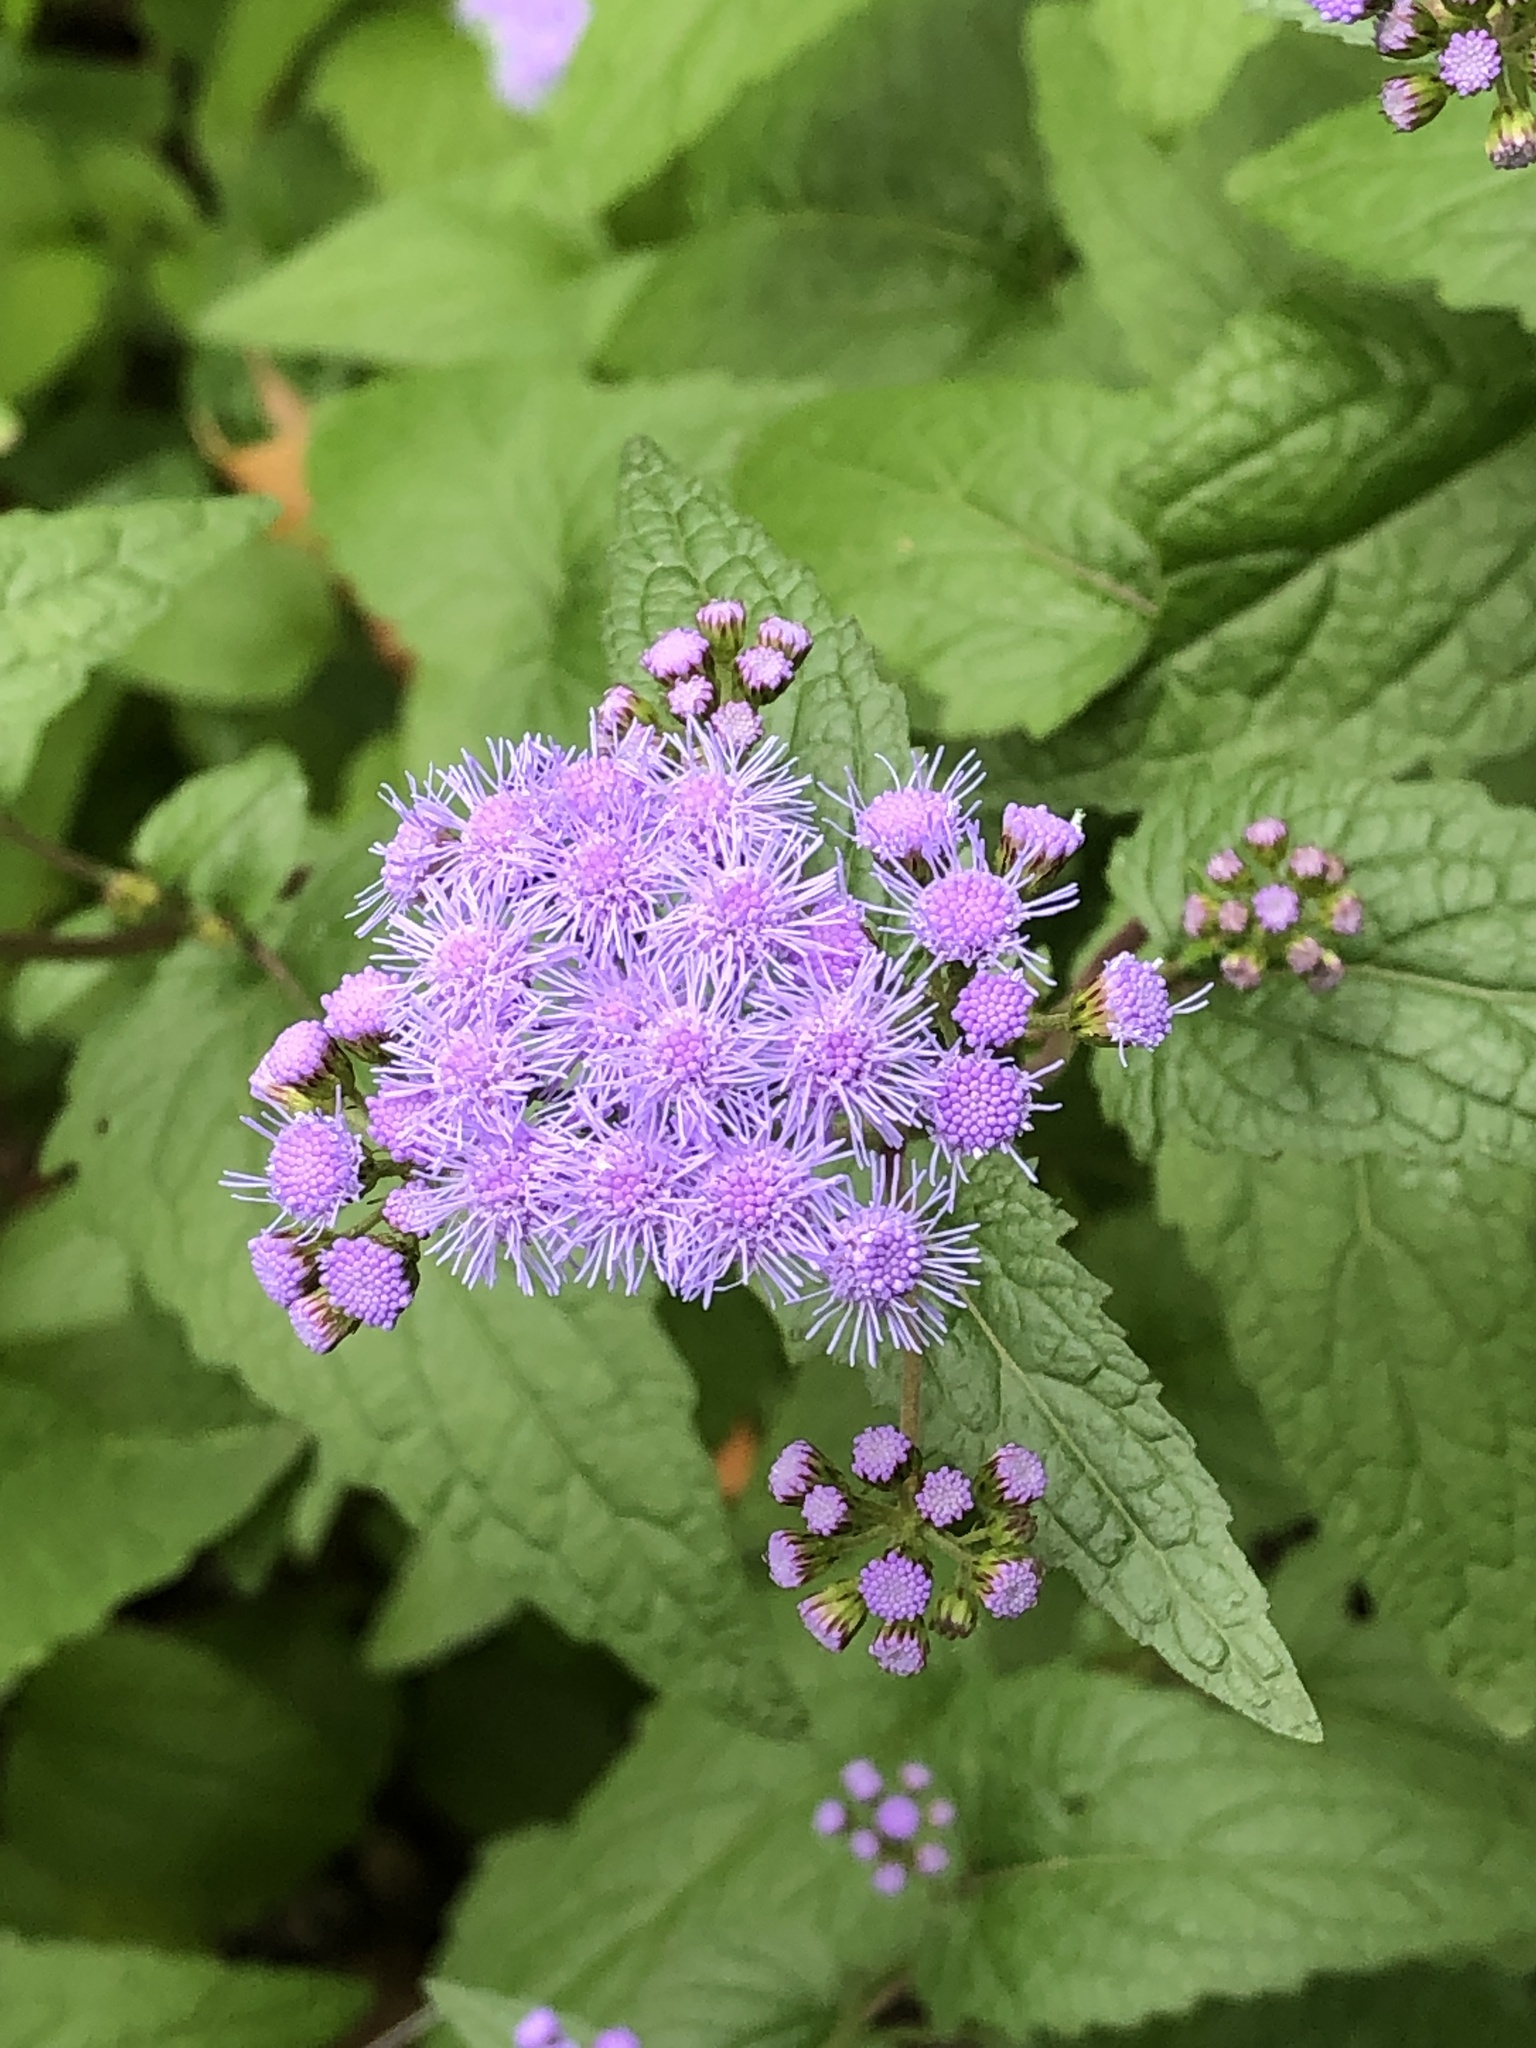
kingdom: Plantae
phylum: Tracheophyta
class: Magnoliopsida
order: Asterales
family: Asteraceae
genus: Conoclinium
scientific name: Conoclinium coelestinum
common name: Blue mistflower
